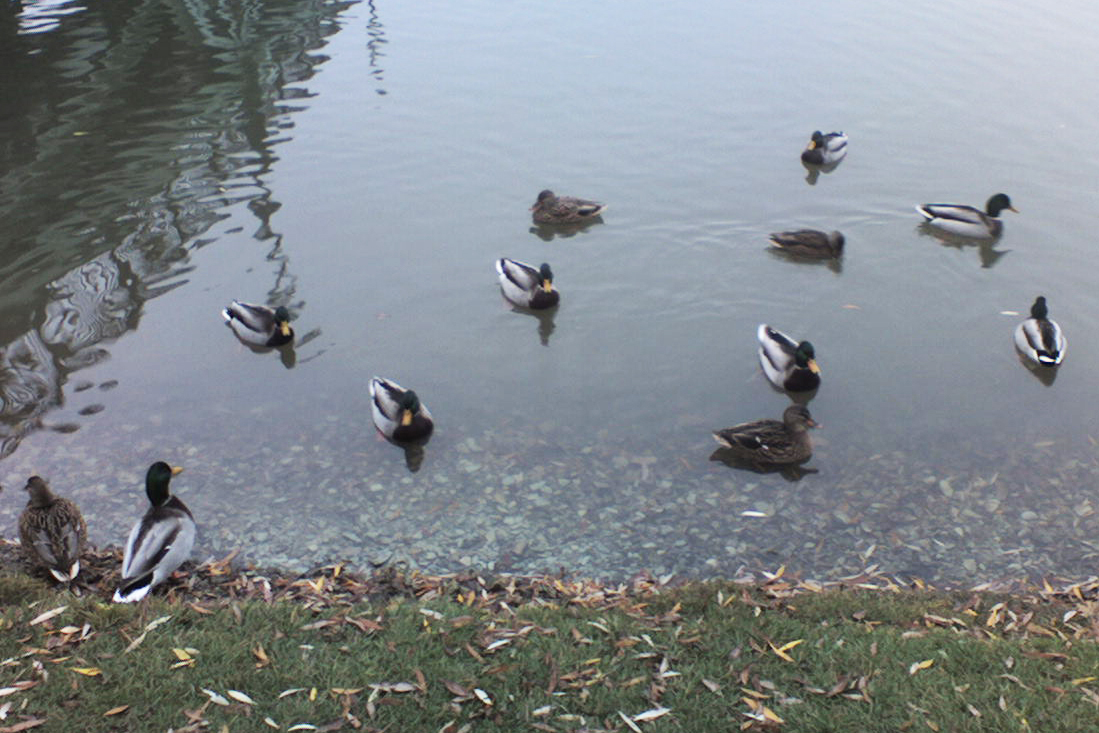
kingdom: Animalia
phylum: Chordata
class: Aves
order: Anseriformes
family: Anatidae
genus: Anas
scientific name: Anas platyrhynchos
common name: Mallard
